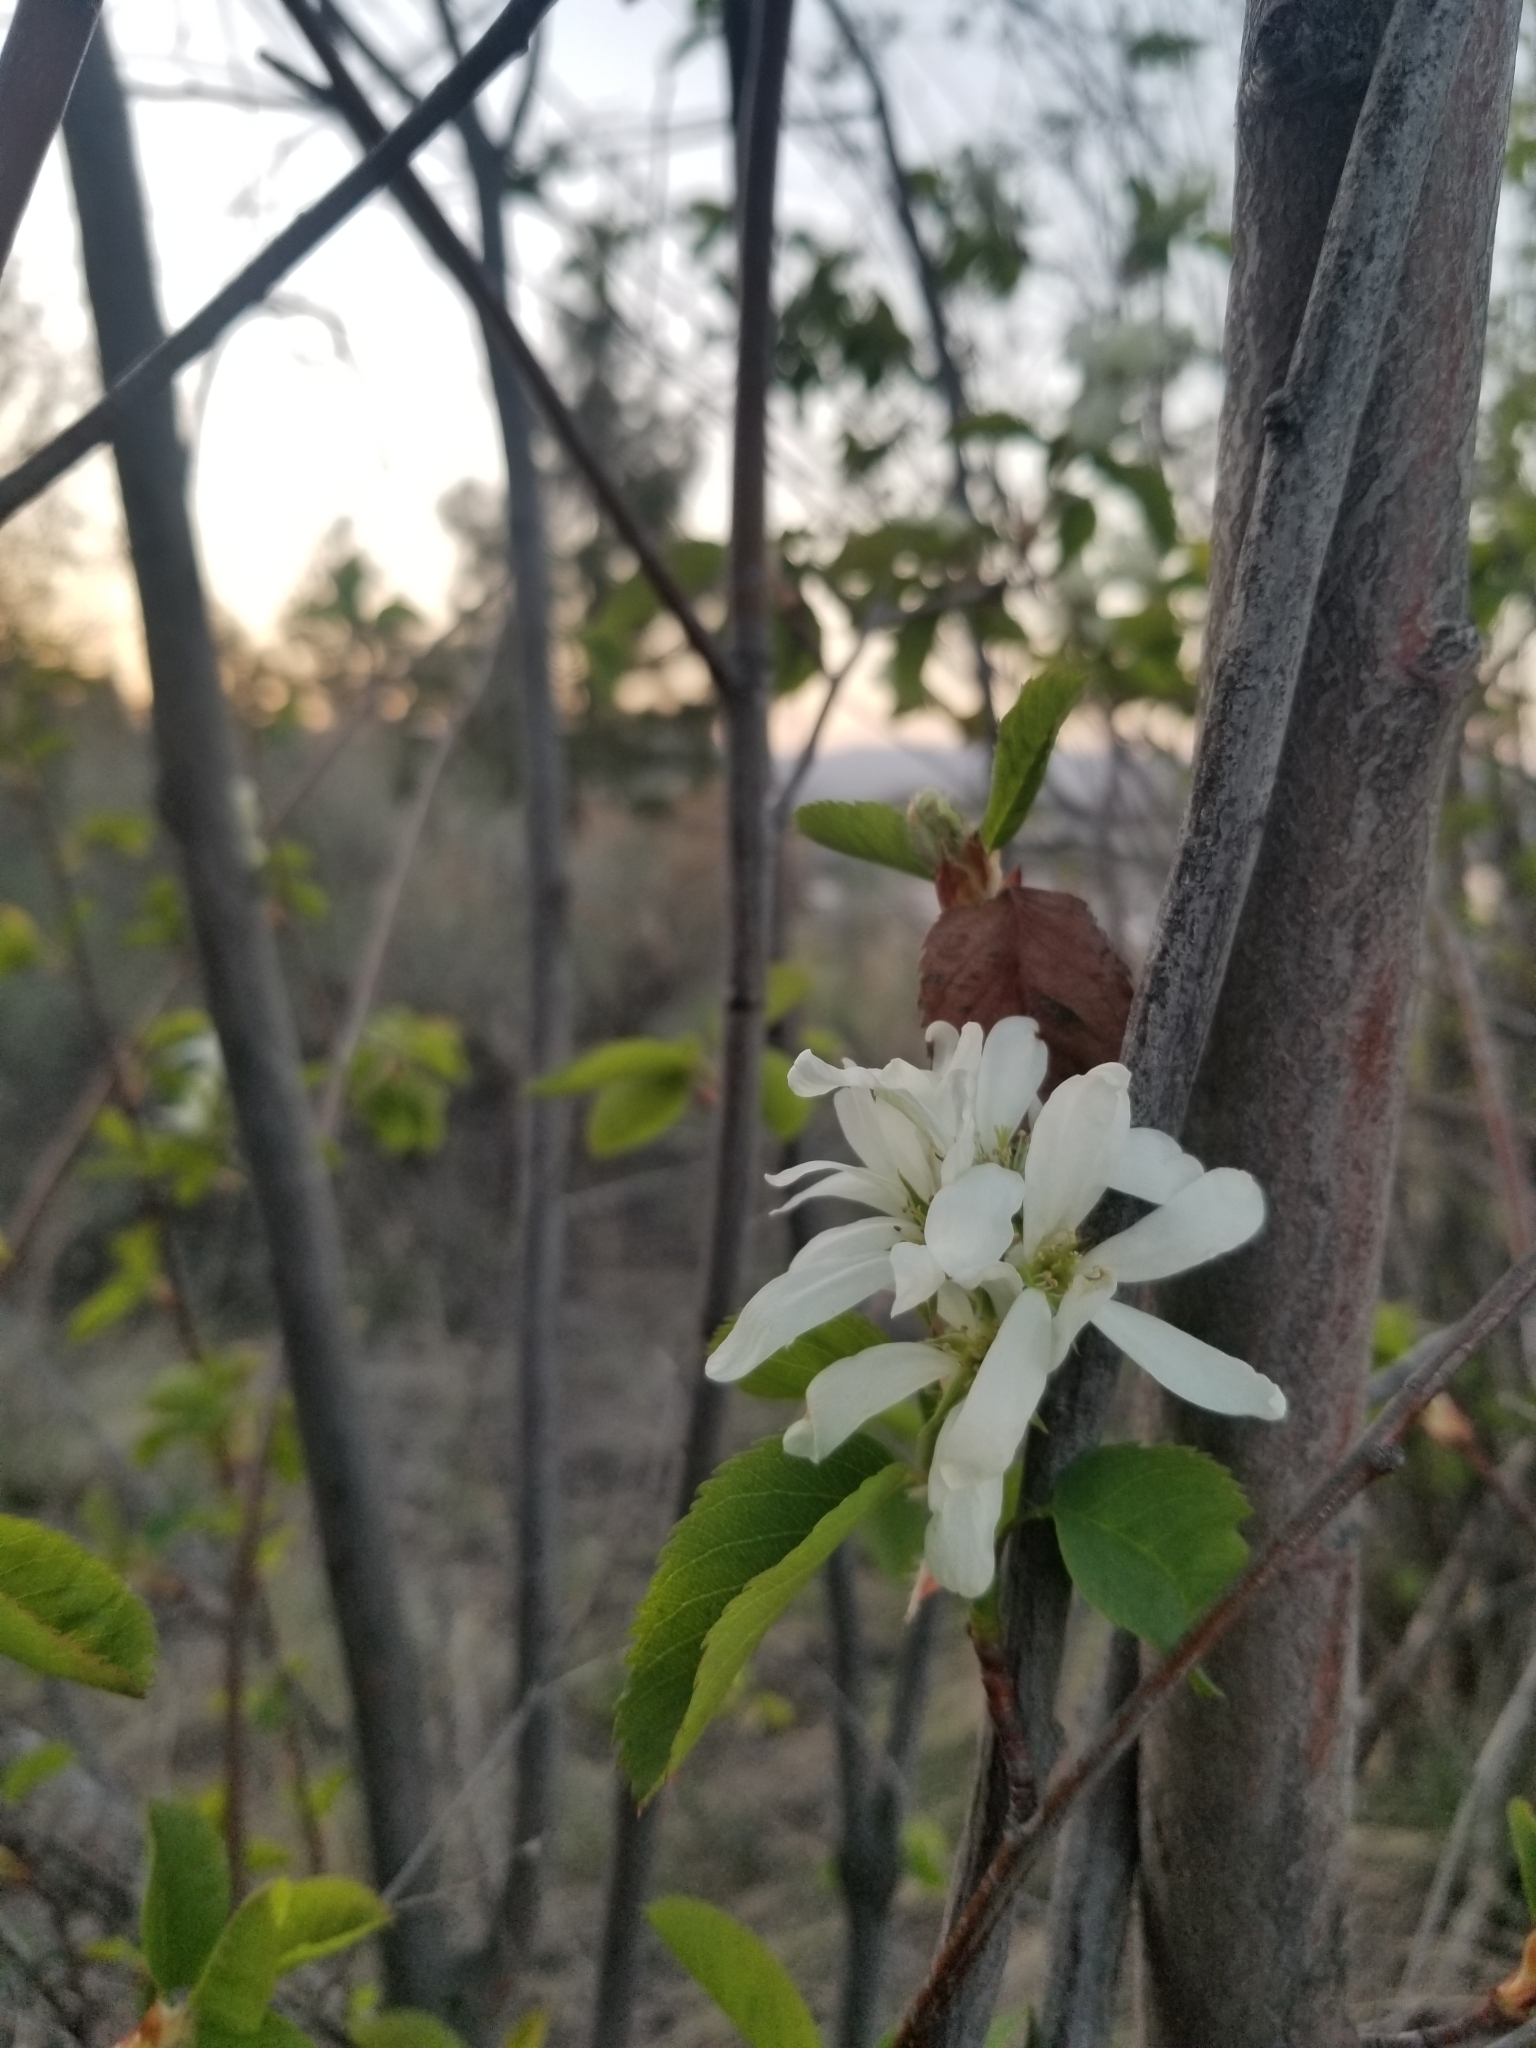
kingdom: Plantae
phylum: Tracheophyta
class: Magnoliopsida
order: Rosales
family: Rosaceae
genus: Amelanchier
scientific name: Amelanchier alnifolia
